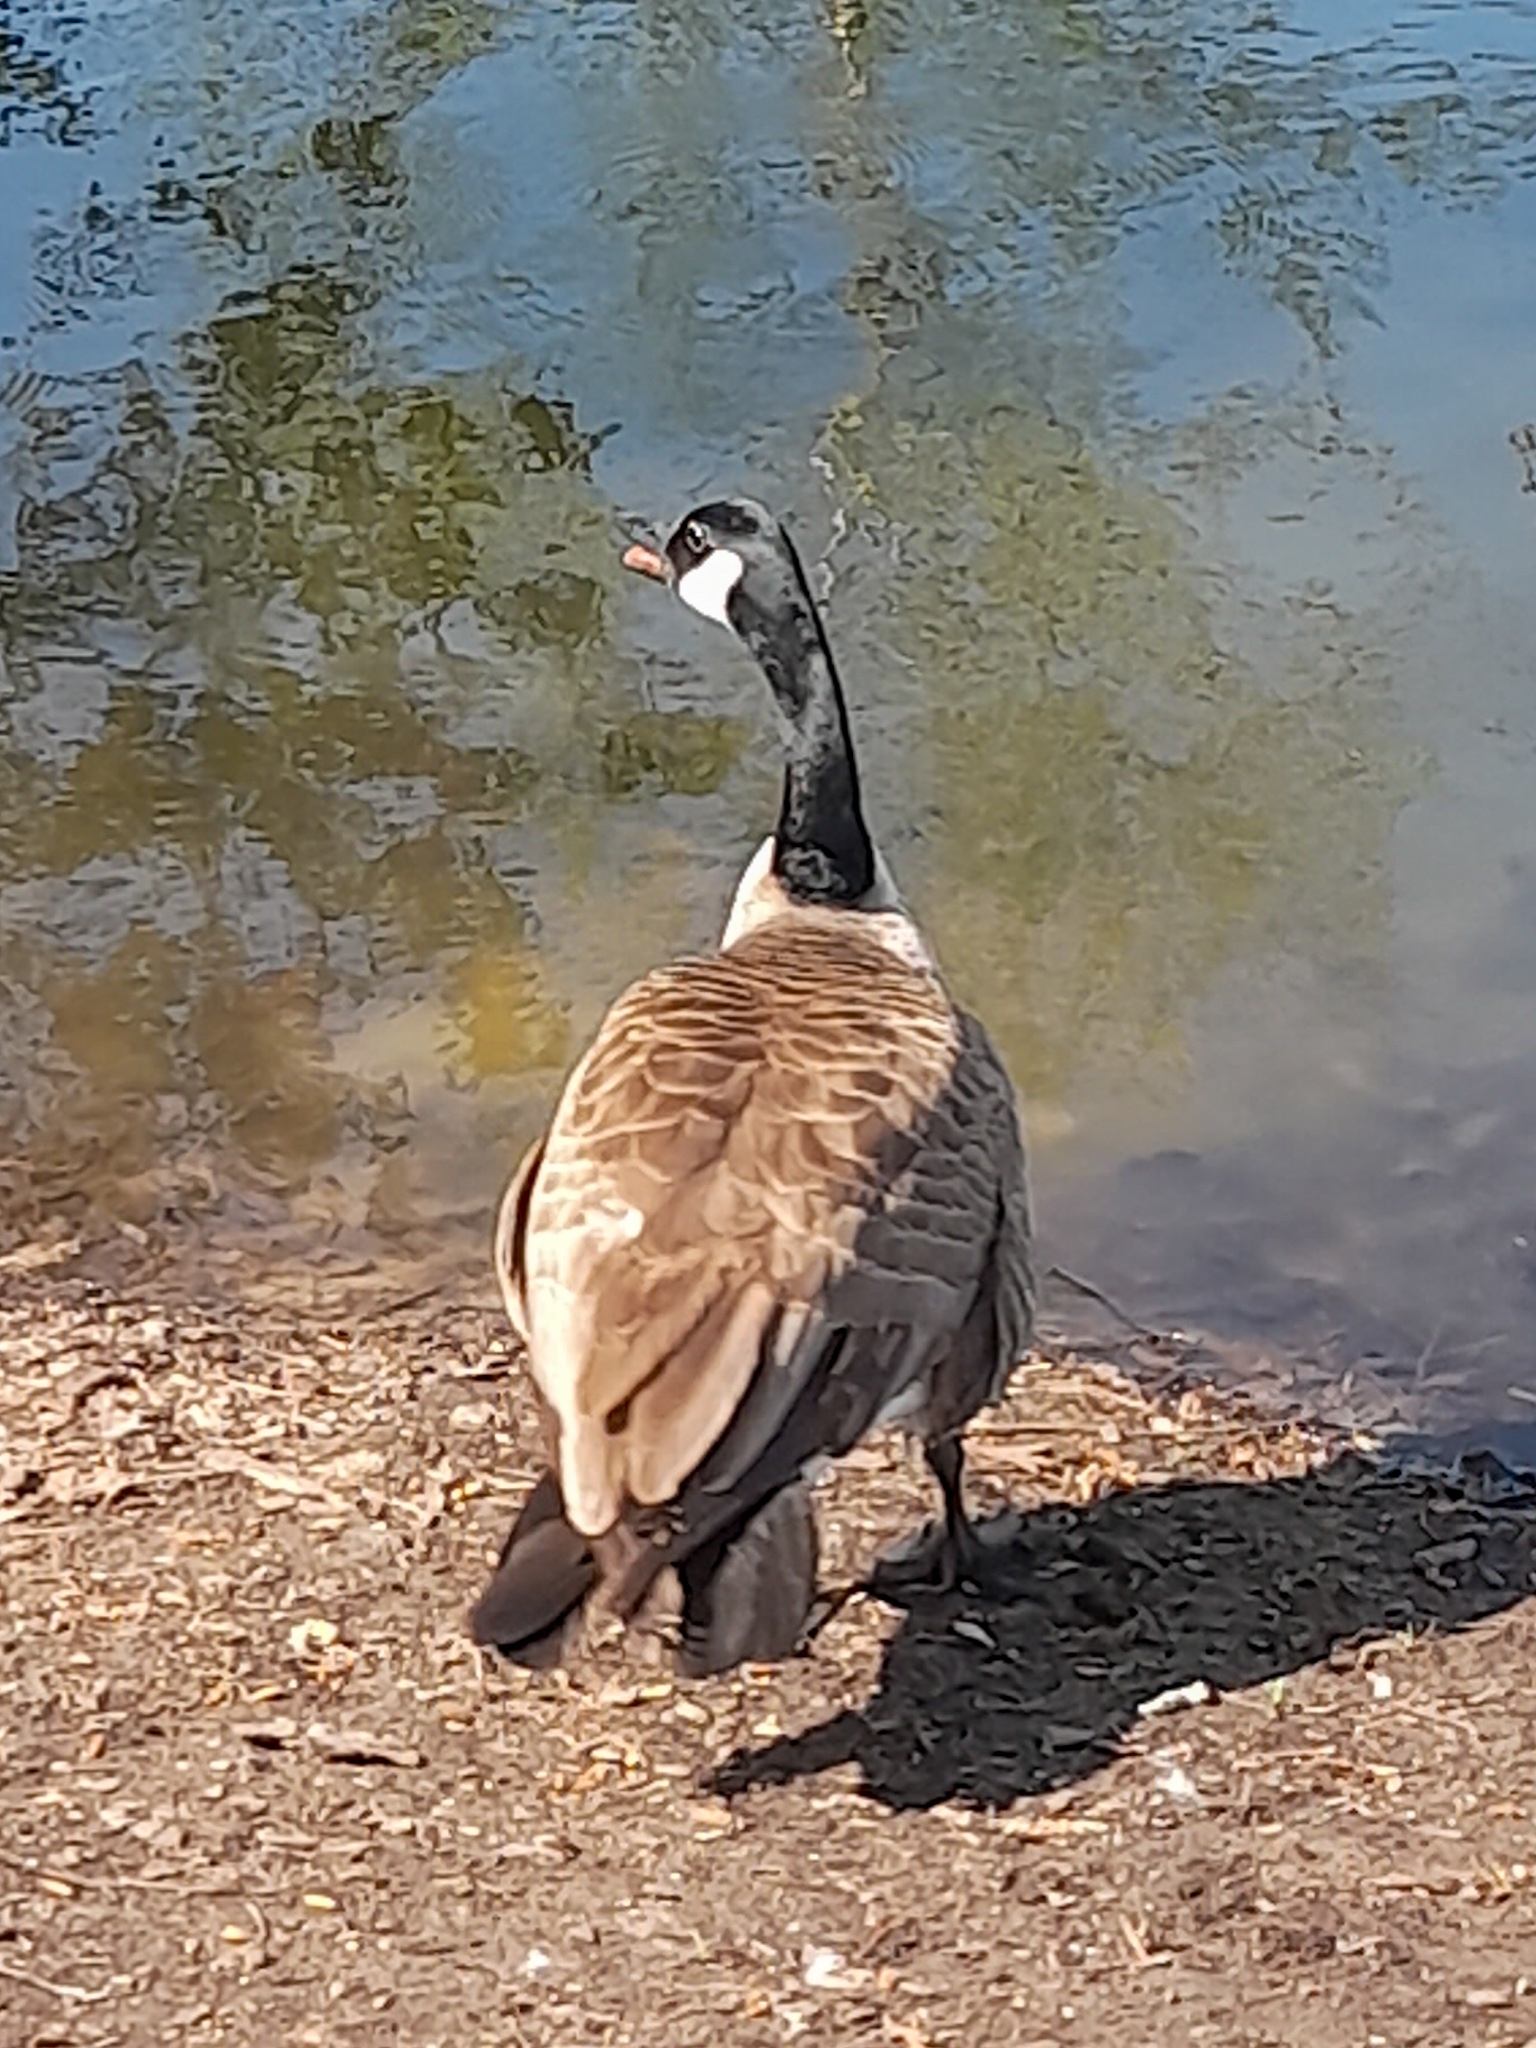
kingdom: Animalia
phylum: Chordata
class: Aves
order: Anseriformes
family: Anatidae
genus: Branta
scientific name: Branta canadensis
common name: Canada goose
